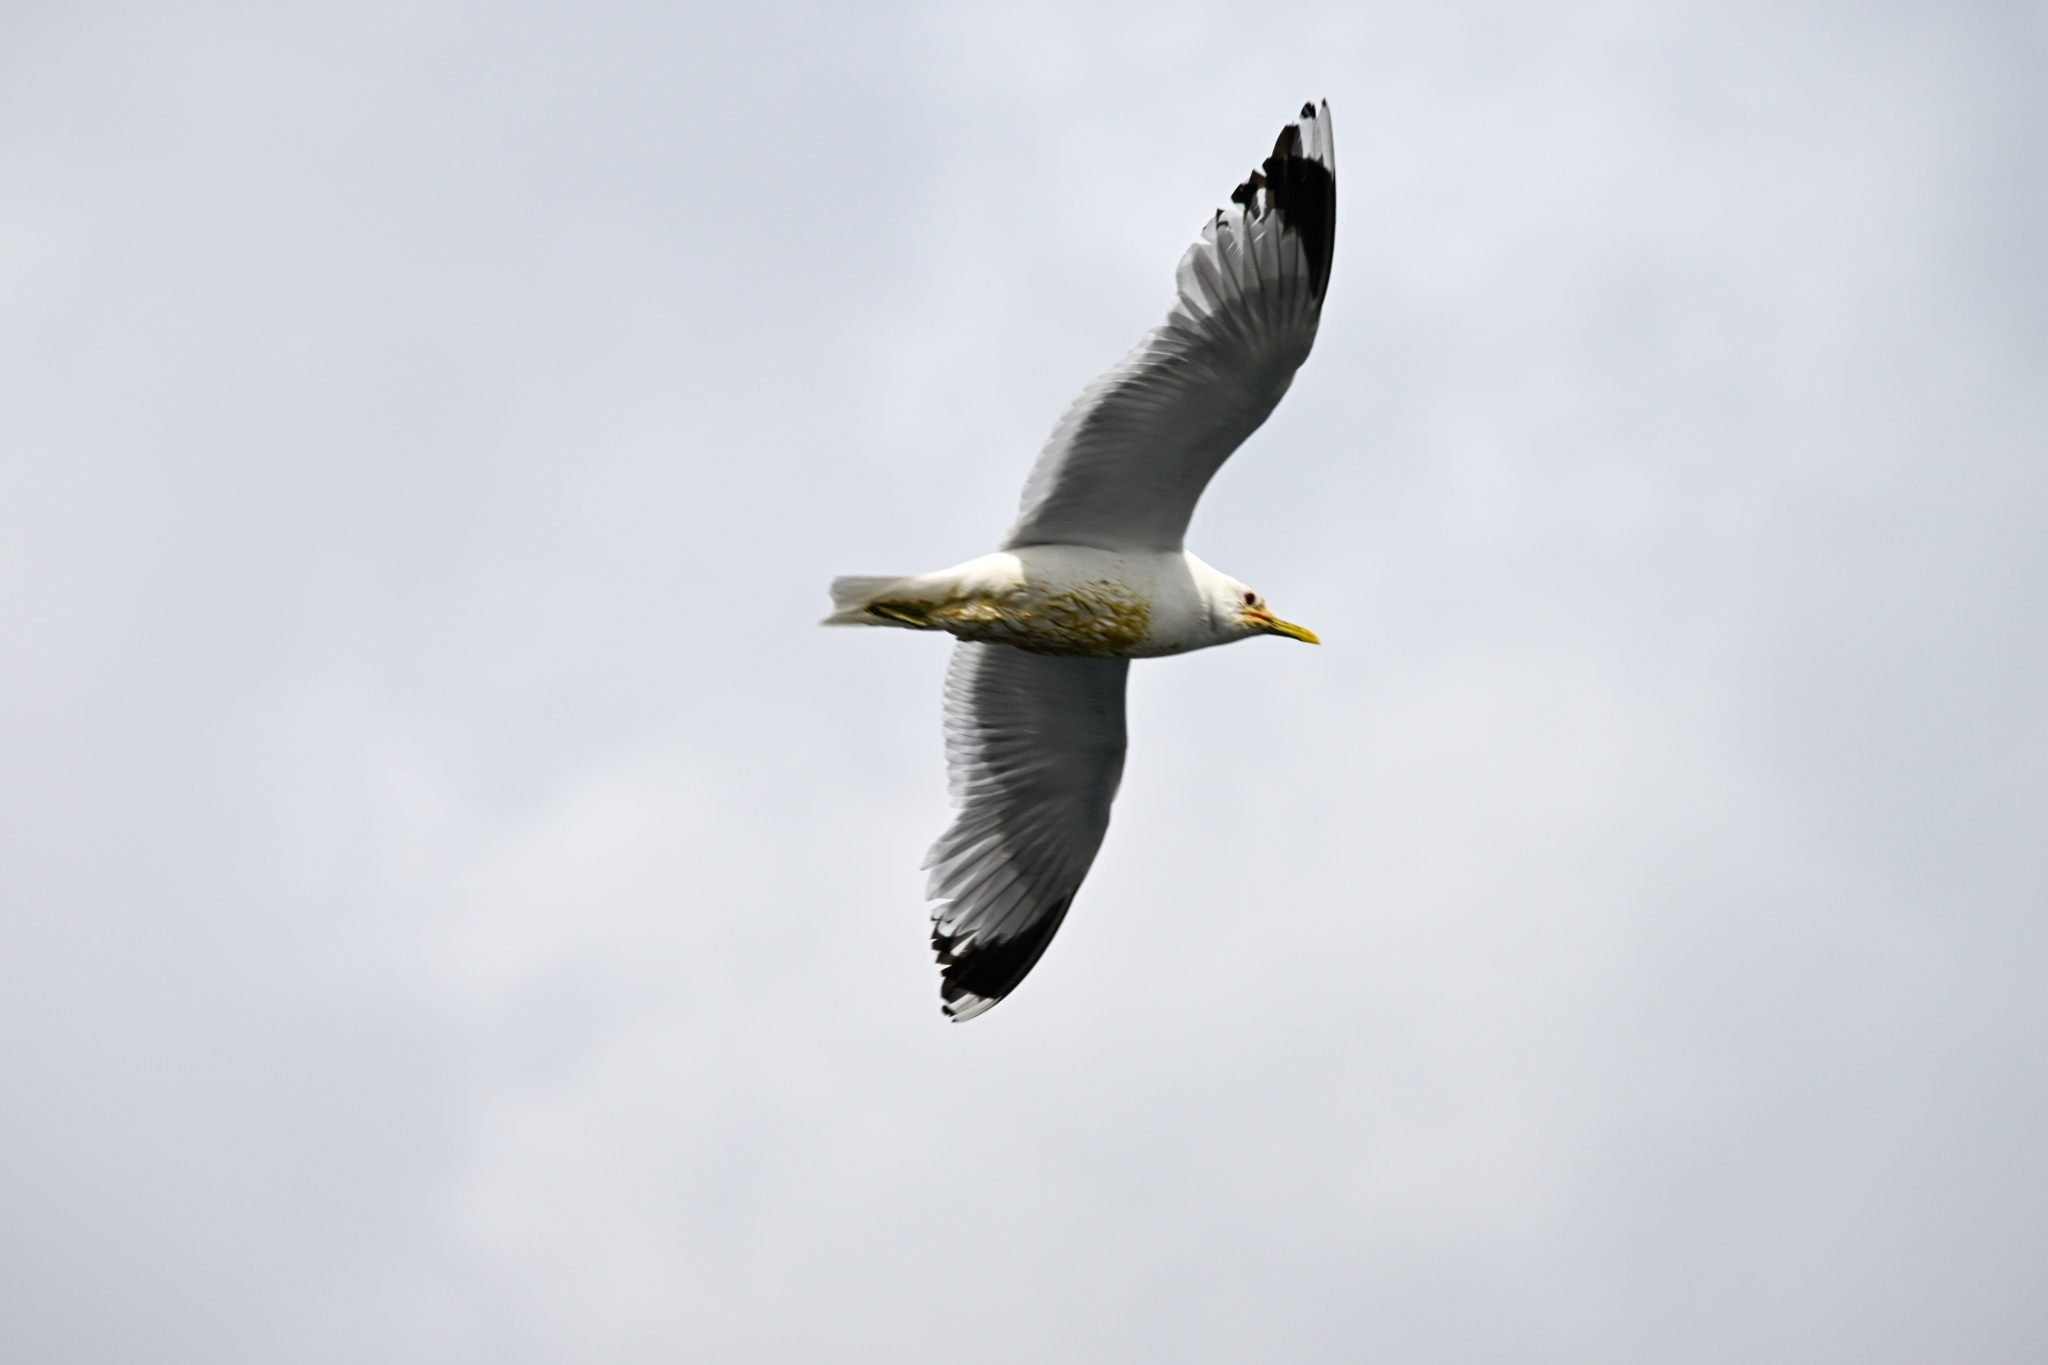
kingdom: Animalia
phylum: Chordata
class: Aves
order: Charadriiformes
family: Laridae
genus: Larus
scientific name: Larus canus
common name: Mew gull
